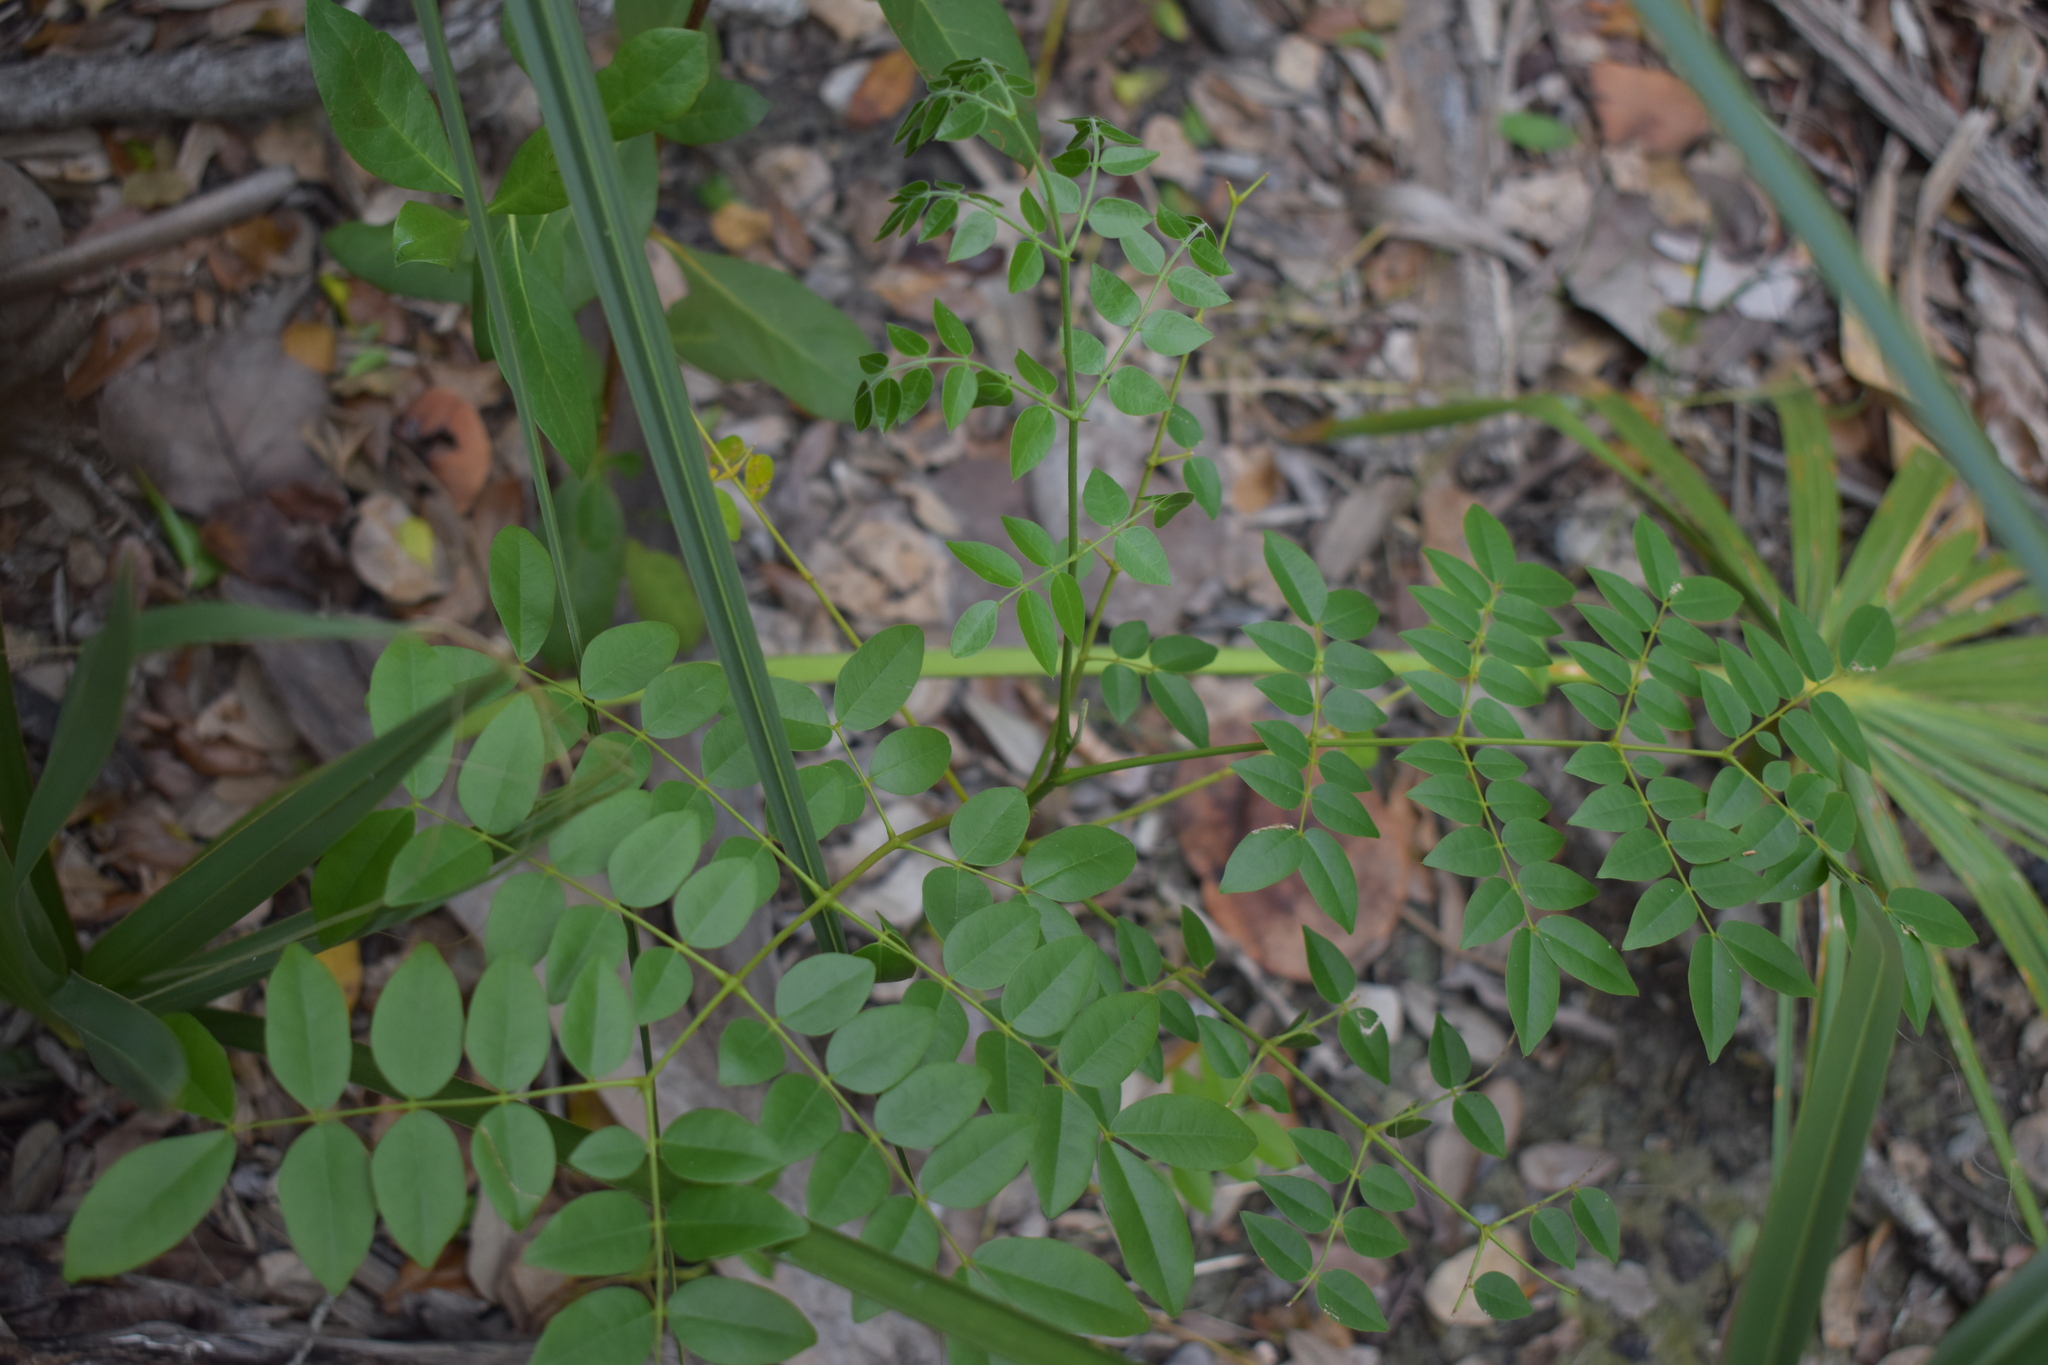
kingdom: Plantae
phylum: Tracheophyta
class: Magnoliopsida
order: Fabales
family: Fabaceae
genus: Guilandina
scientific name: Guilandina bonduc
